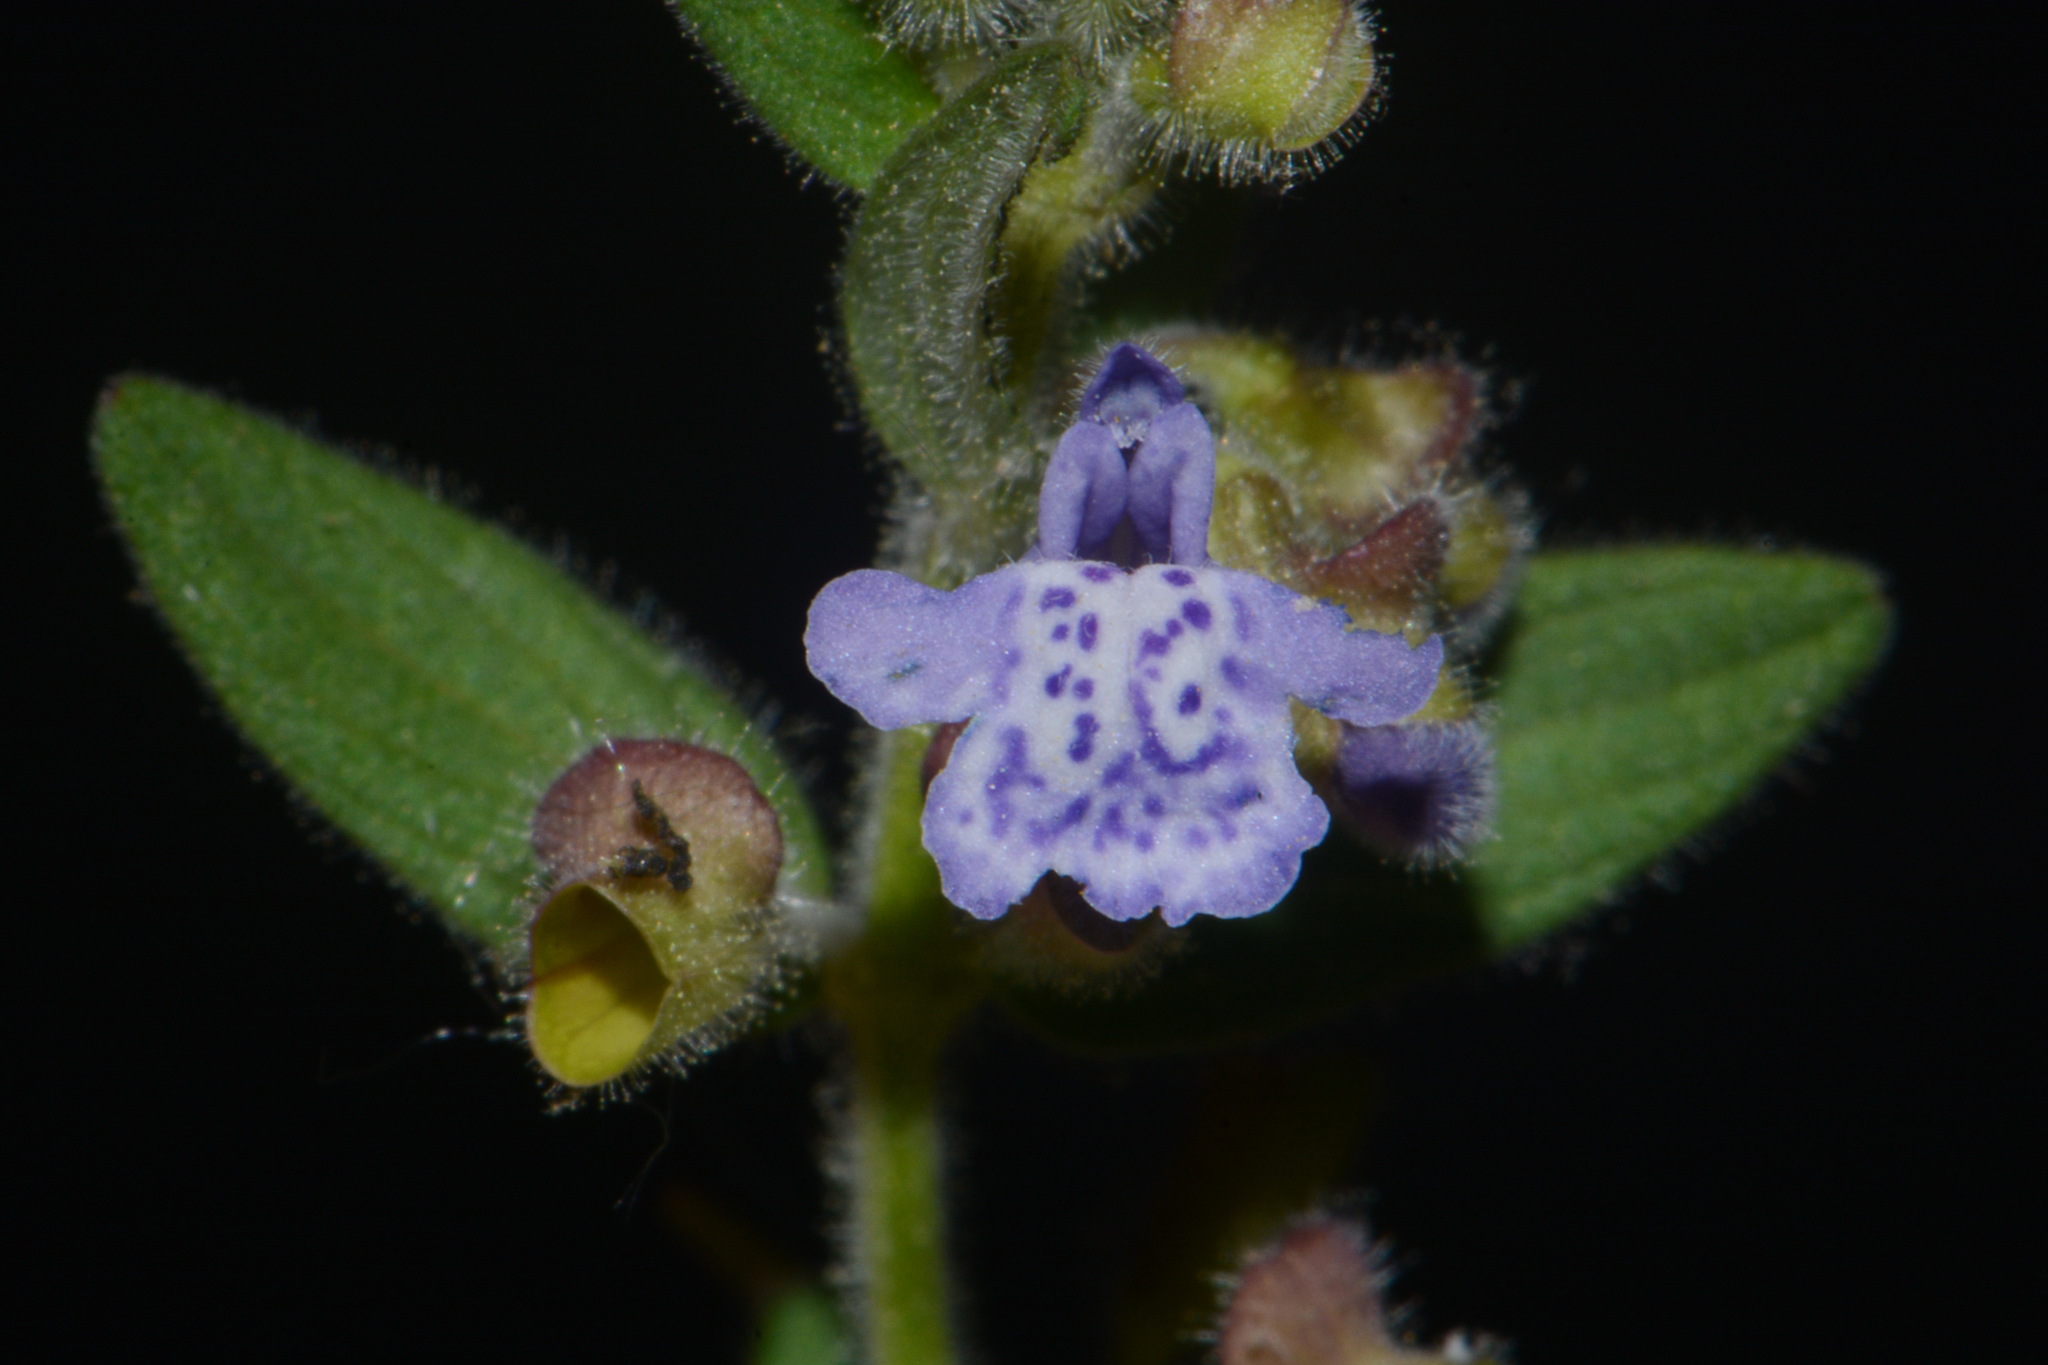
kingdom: Plantae
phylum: Tracheophyta
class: Magnoliopsida
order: Lamiales
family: Lamiaceae
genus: Scutellaria
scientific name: Scutellaria parvula
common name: Little scullcap
